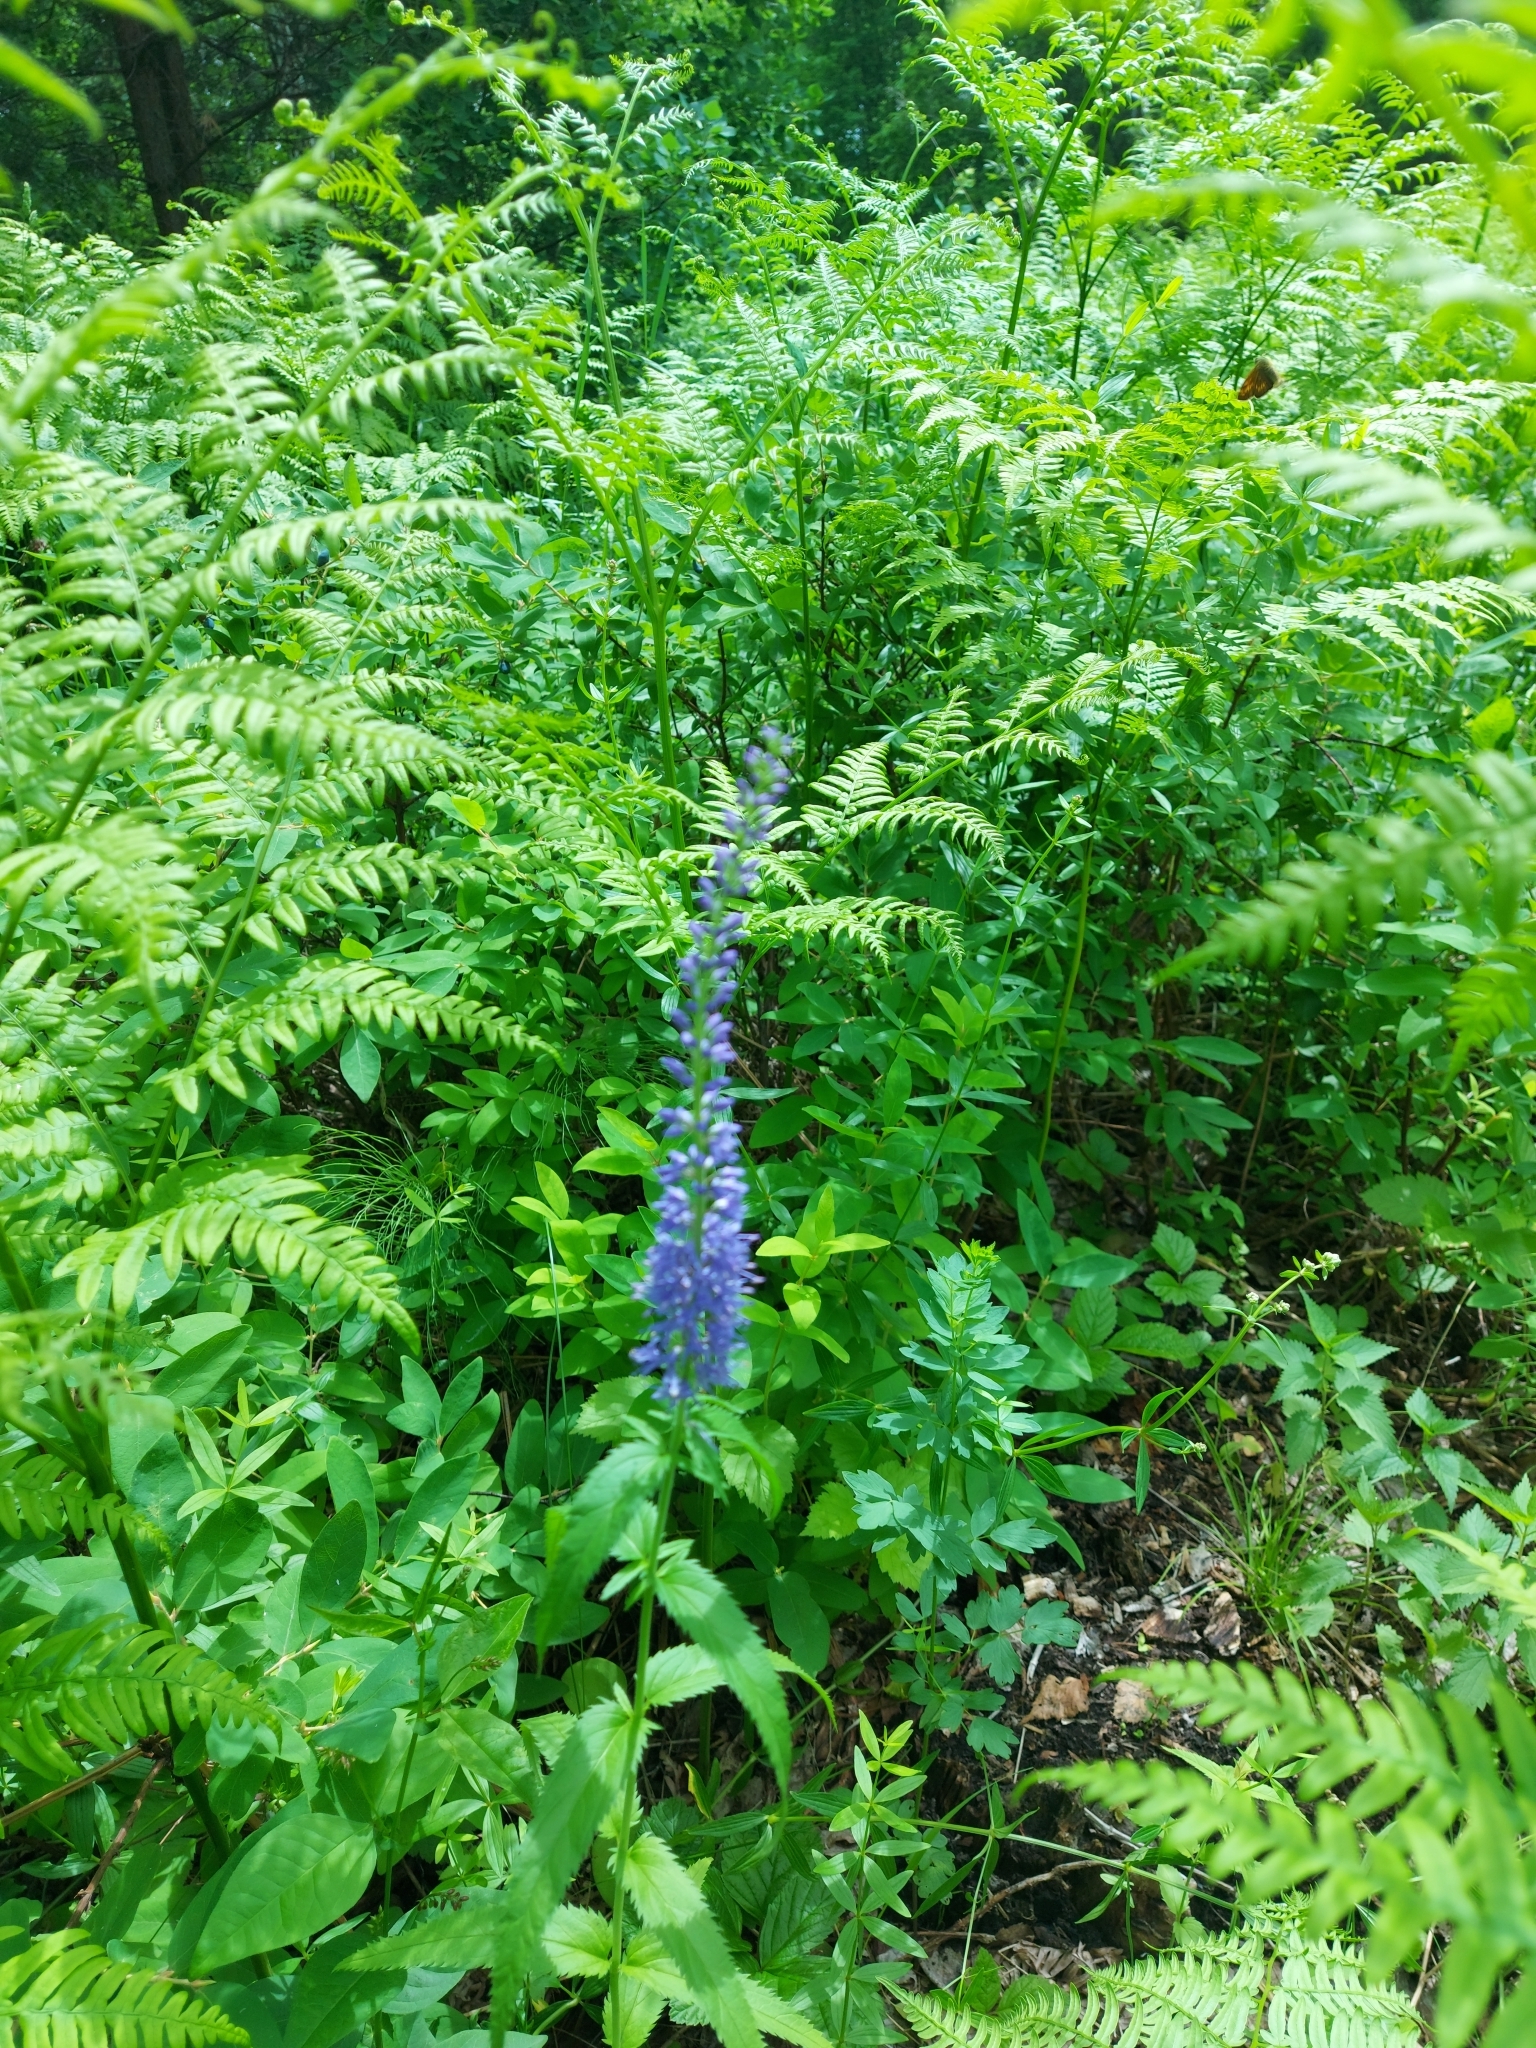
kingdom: Plantae
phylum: Tracheophyta
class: Magnoliopsida
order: Lamiales
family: Plantaginaceae
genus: Veronica
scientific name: Veronica longifolia
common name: Garden speedwell
